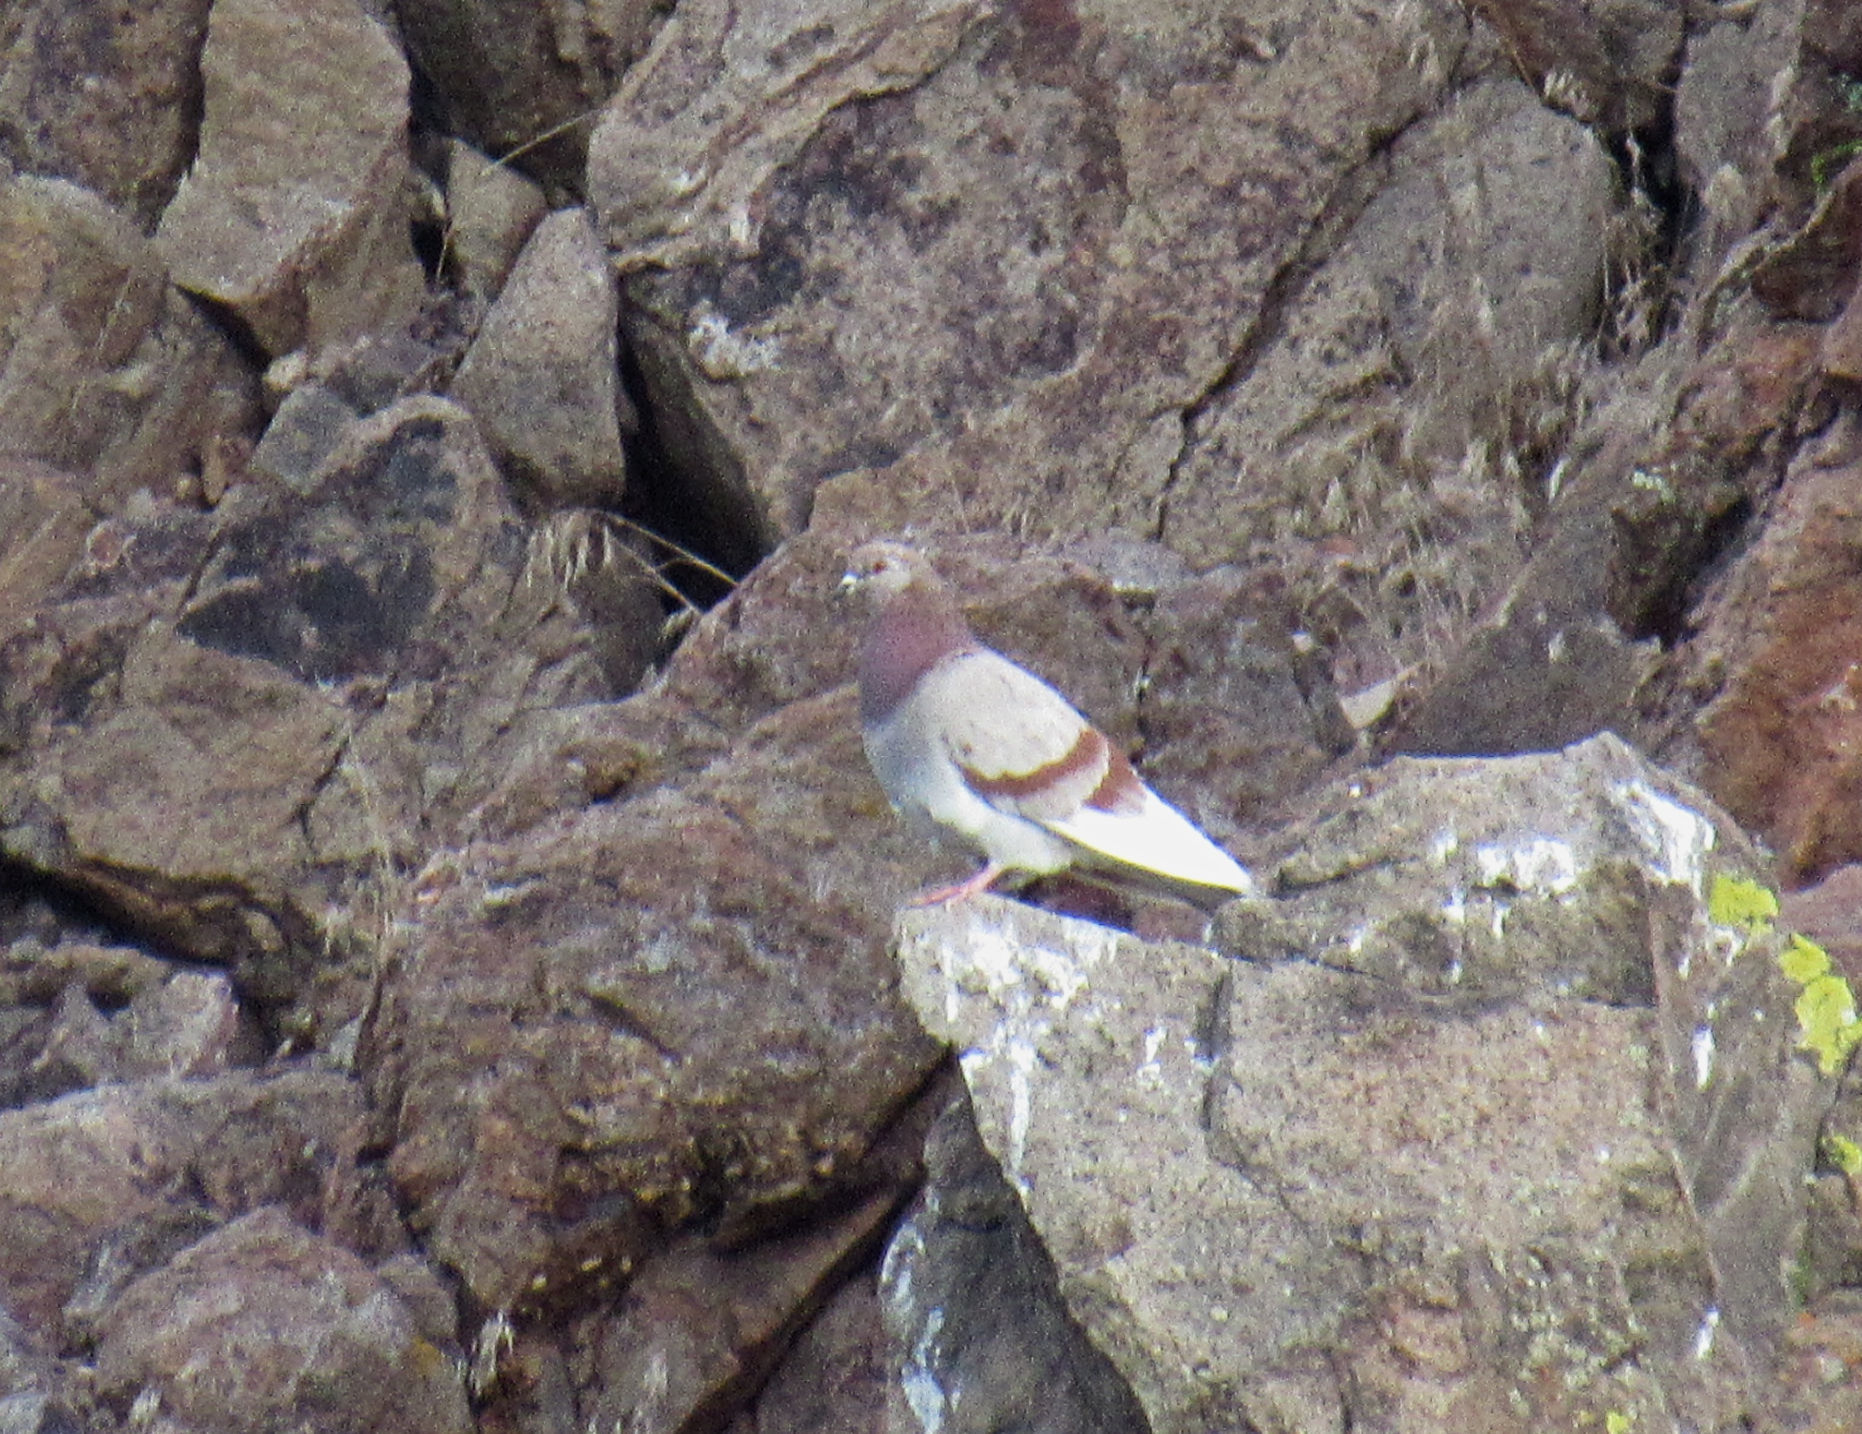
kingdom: Animalia
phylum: Chordata
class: Aves
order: Columbiformes
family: Columbidae
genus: Columba
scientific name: Columba livia
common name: Rock pigeon
